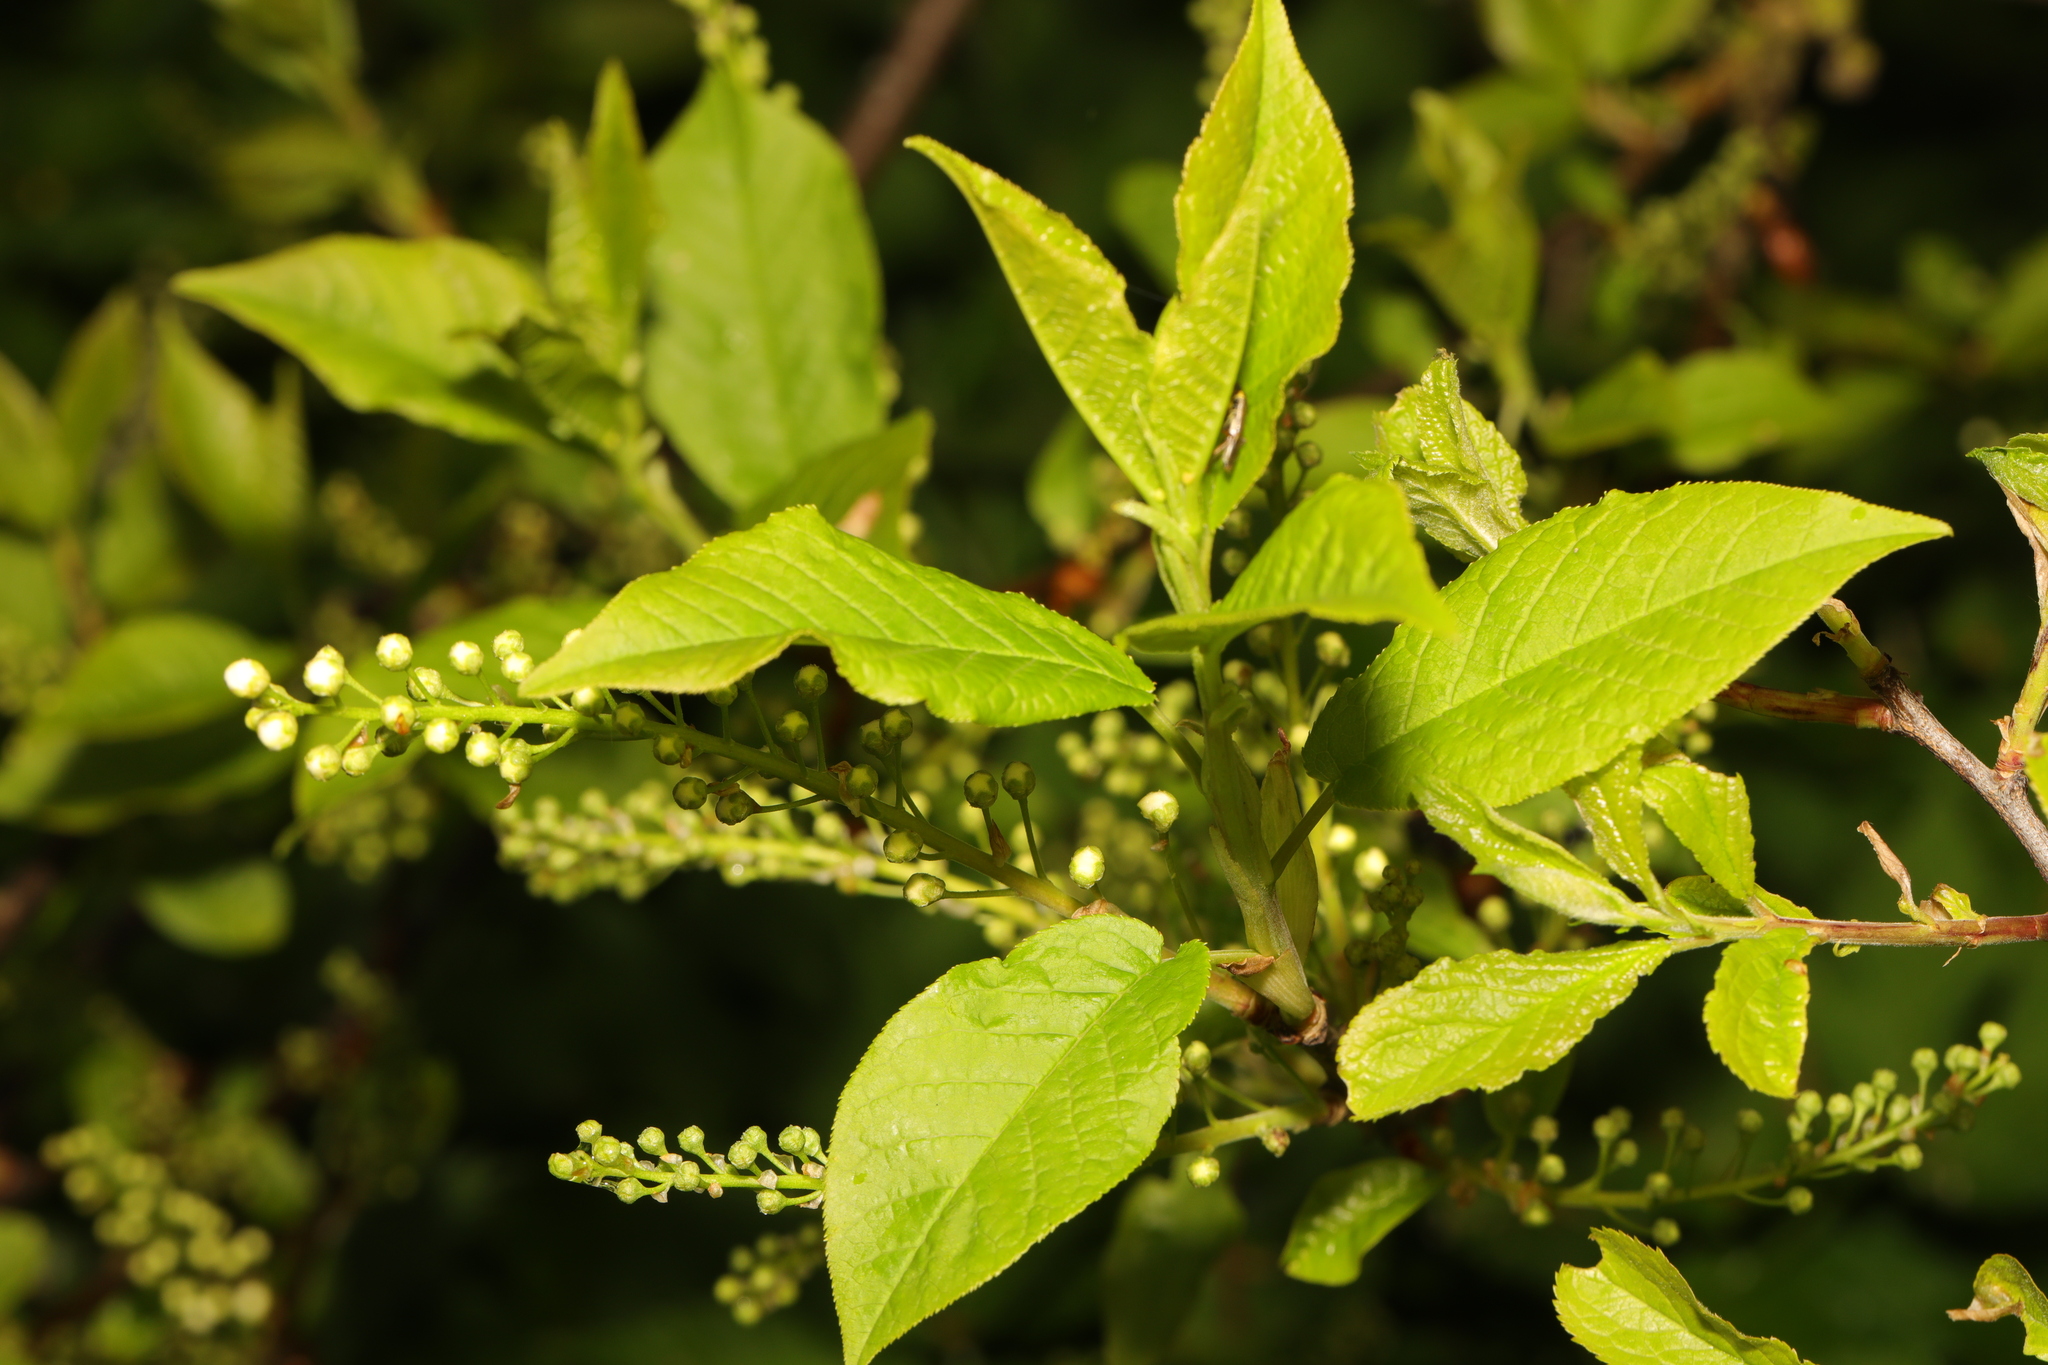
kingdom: Plantae
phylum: Tracheophyta
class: Magnoliopsida
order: Rosales
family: Rosaceae
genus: Prunus
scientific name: Prunus padus
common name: Bird cherry
